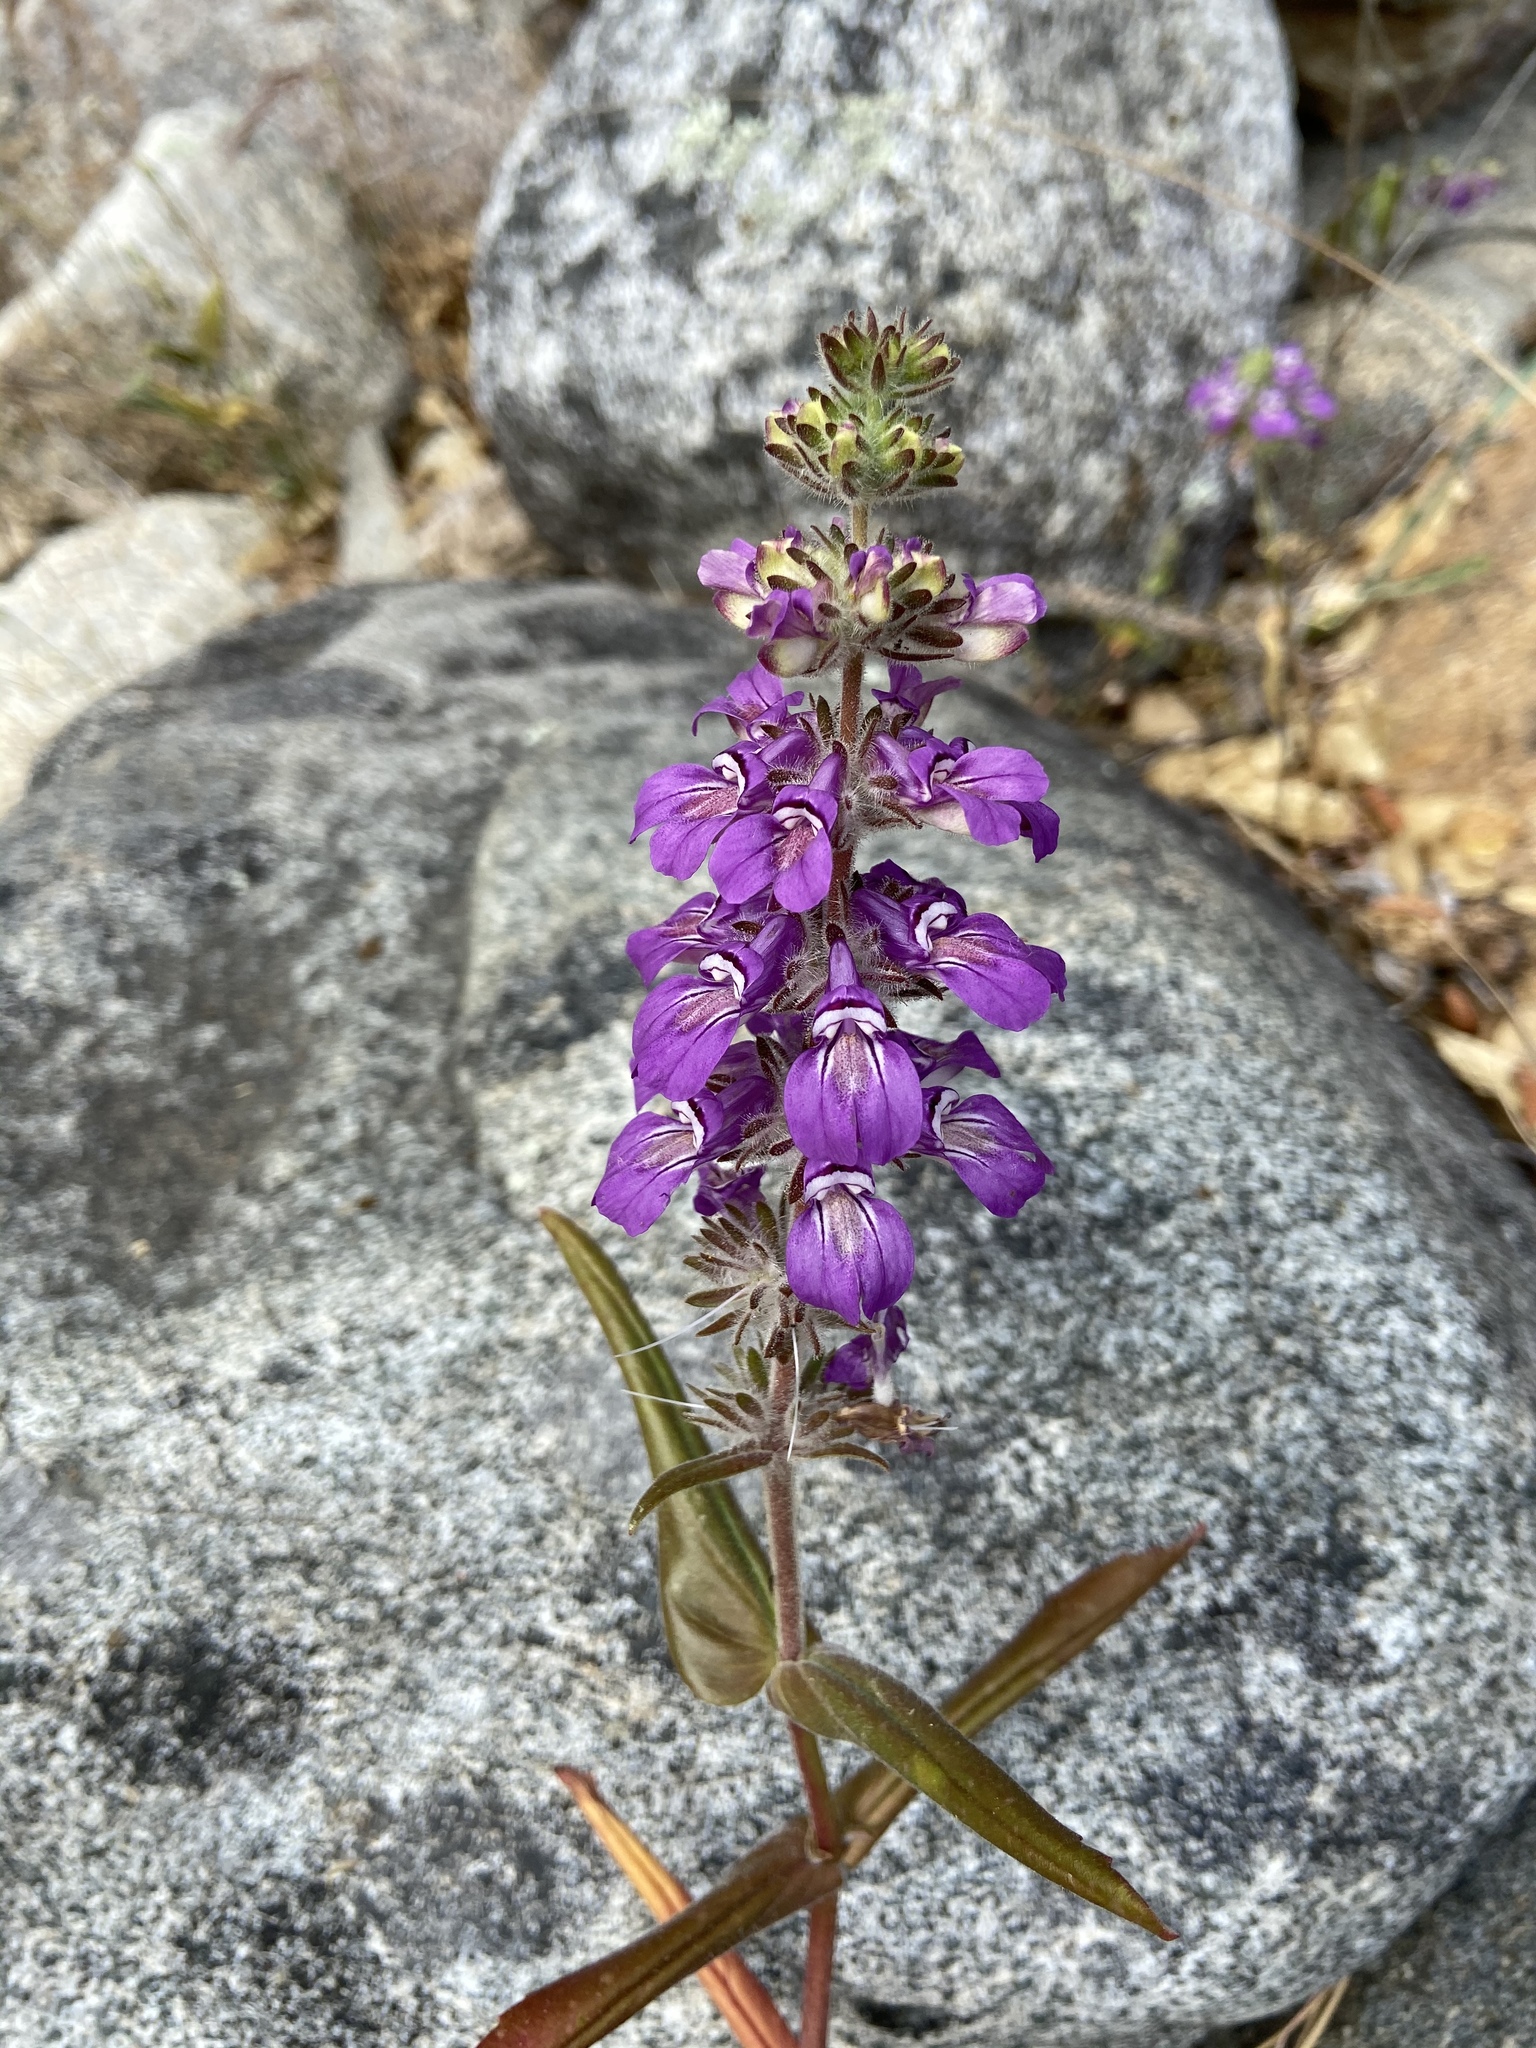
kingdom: Plantae
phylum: Tracheophyta
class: Magnoliopsida
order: Lamiales
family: Plantaginaceae
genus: Collinsia
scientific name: Collinsia heterophylla
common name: Chinese-houses
